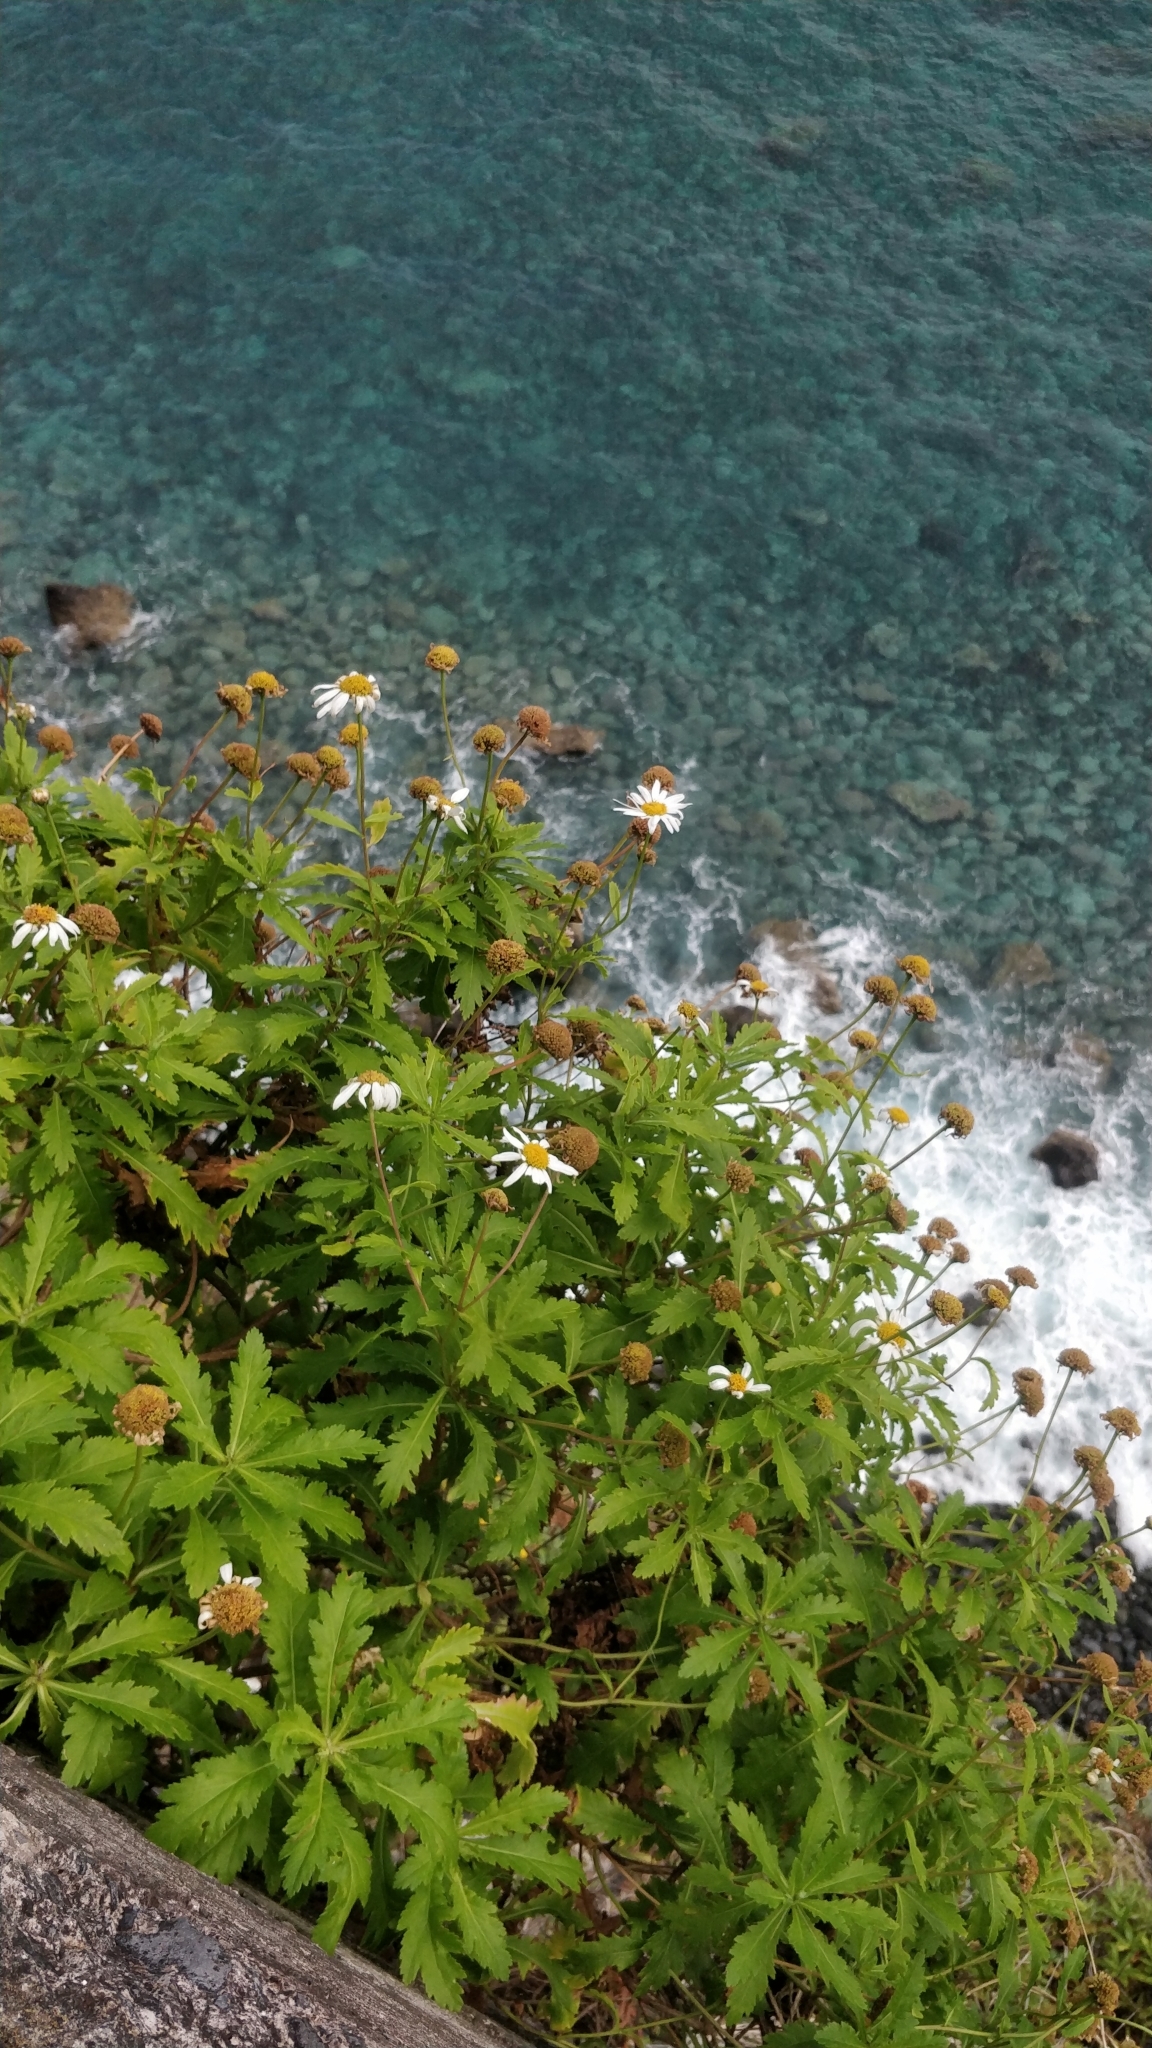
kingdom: Plantae
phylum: Tracheophyta
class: Magnoliopsida
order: Asterales
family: Asteraceae
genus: Argyranthemum
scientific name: Argyranthemum pinnatifidum
